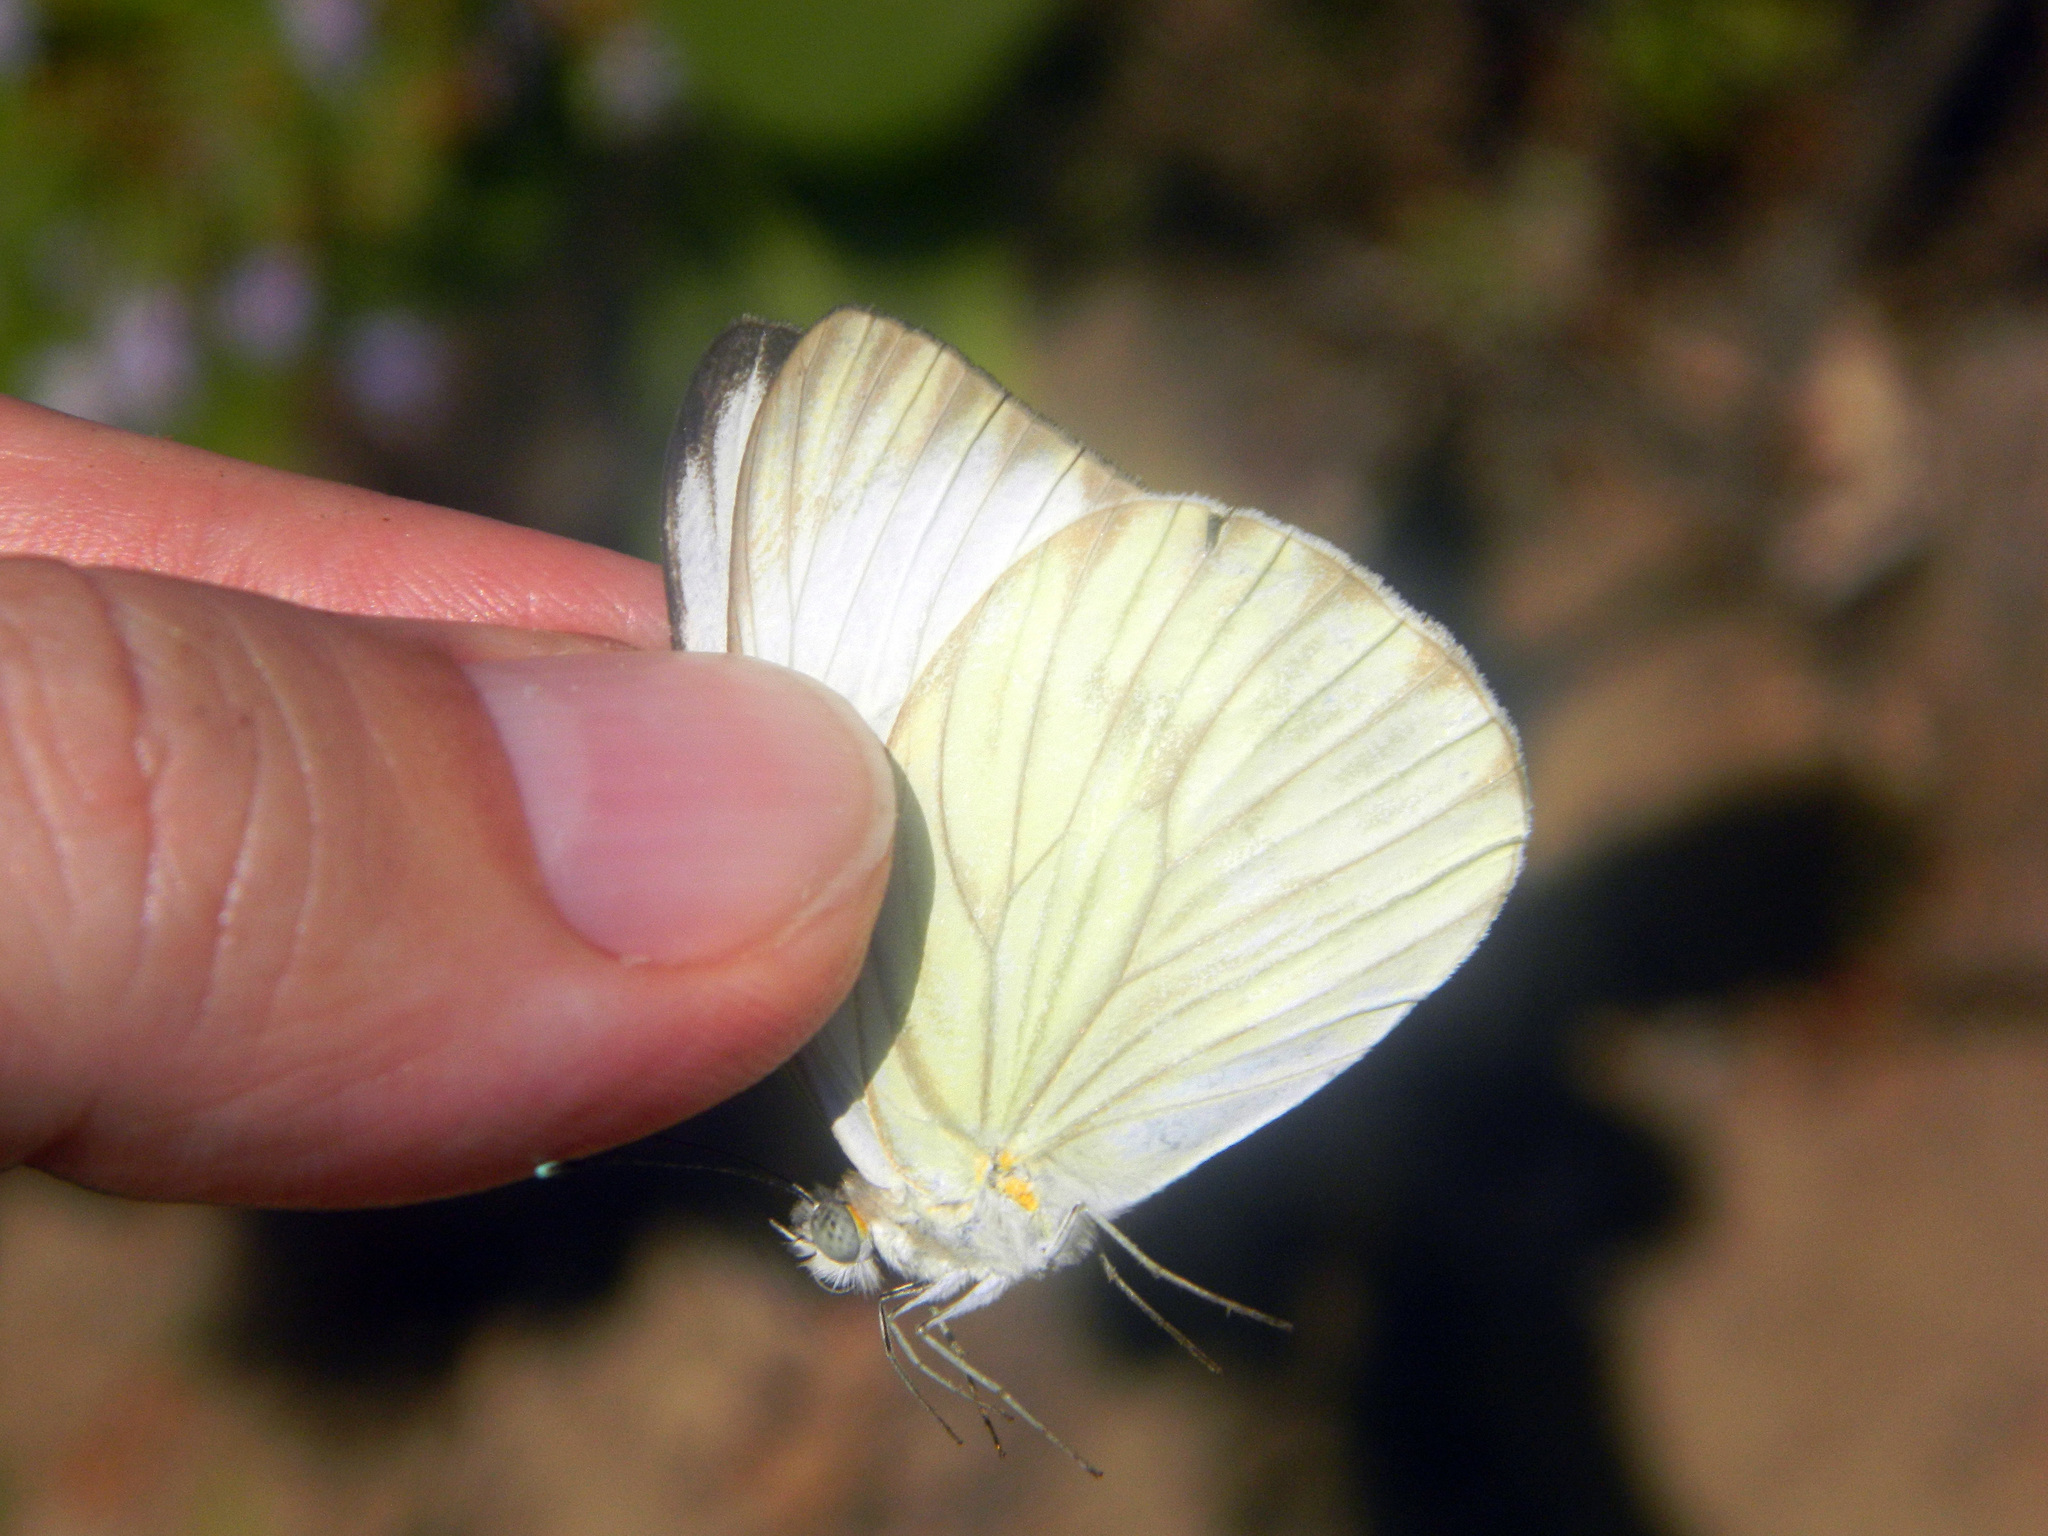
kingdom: Animalia
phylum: Arthropoda
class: Insecta
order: Lepidoptera
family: Pieridae
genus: Ascia
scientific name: Ascia monuste
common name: Great southern white
